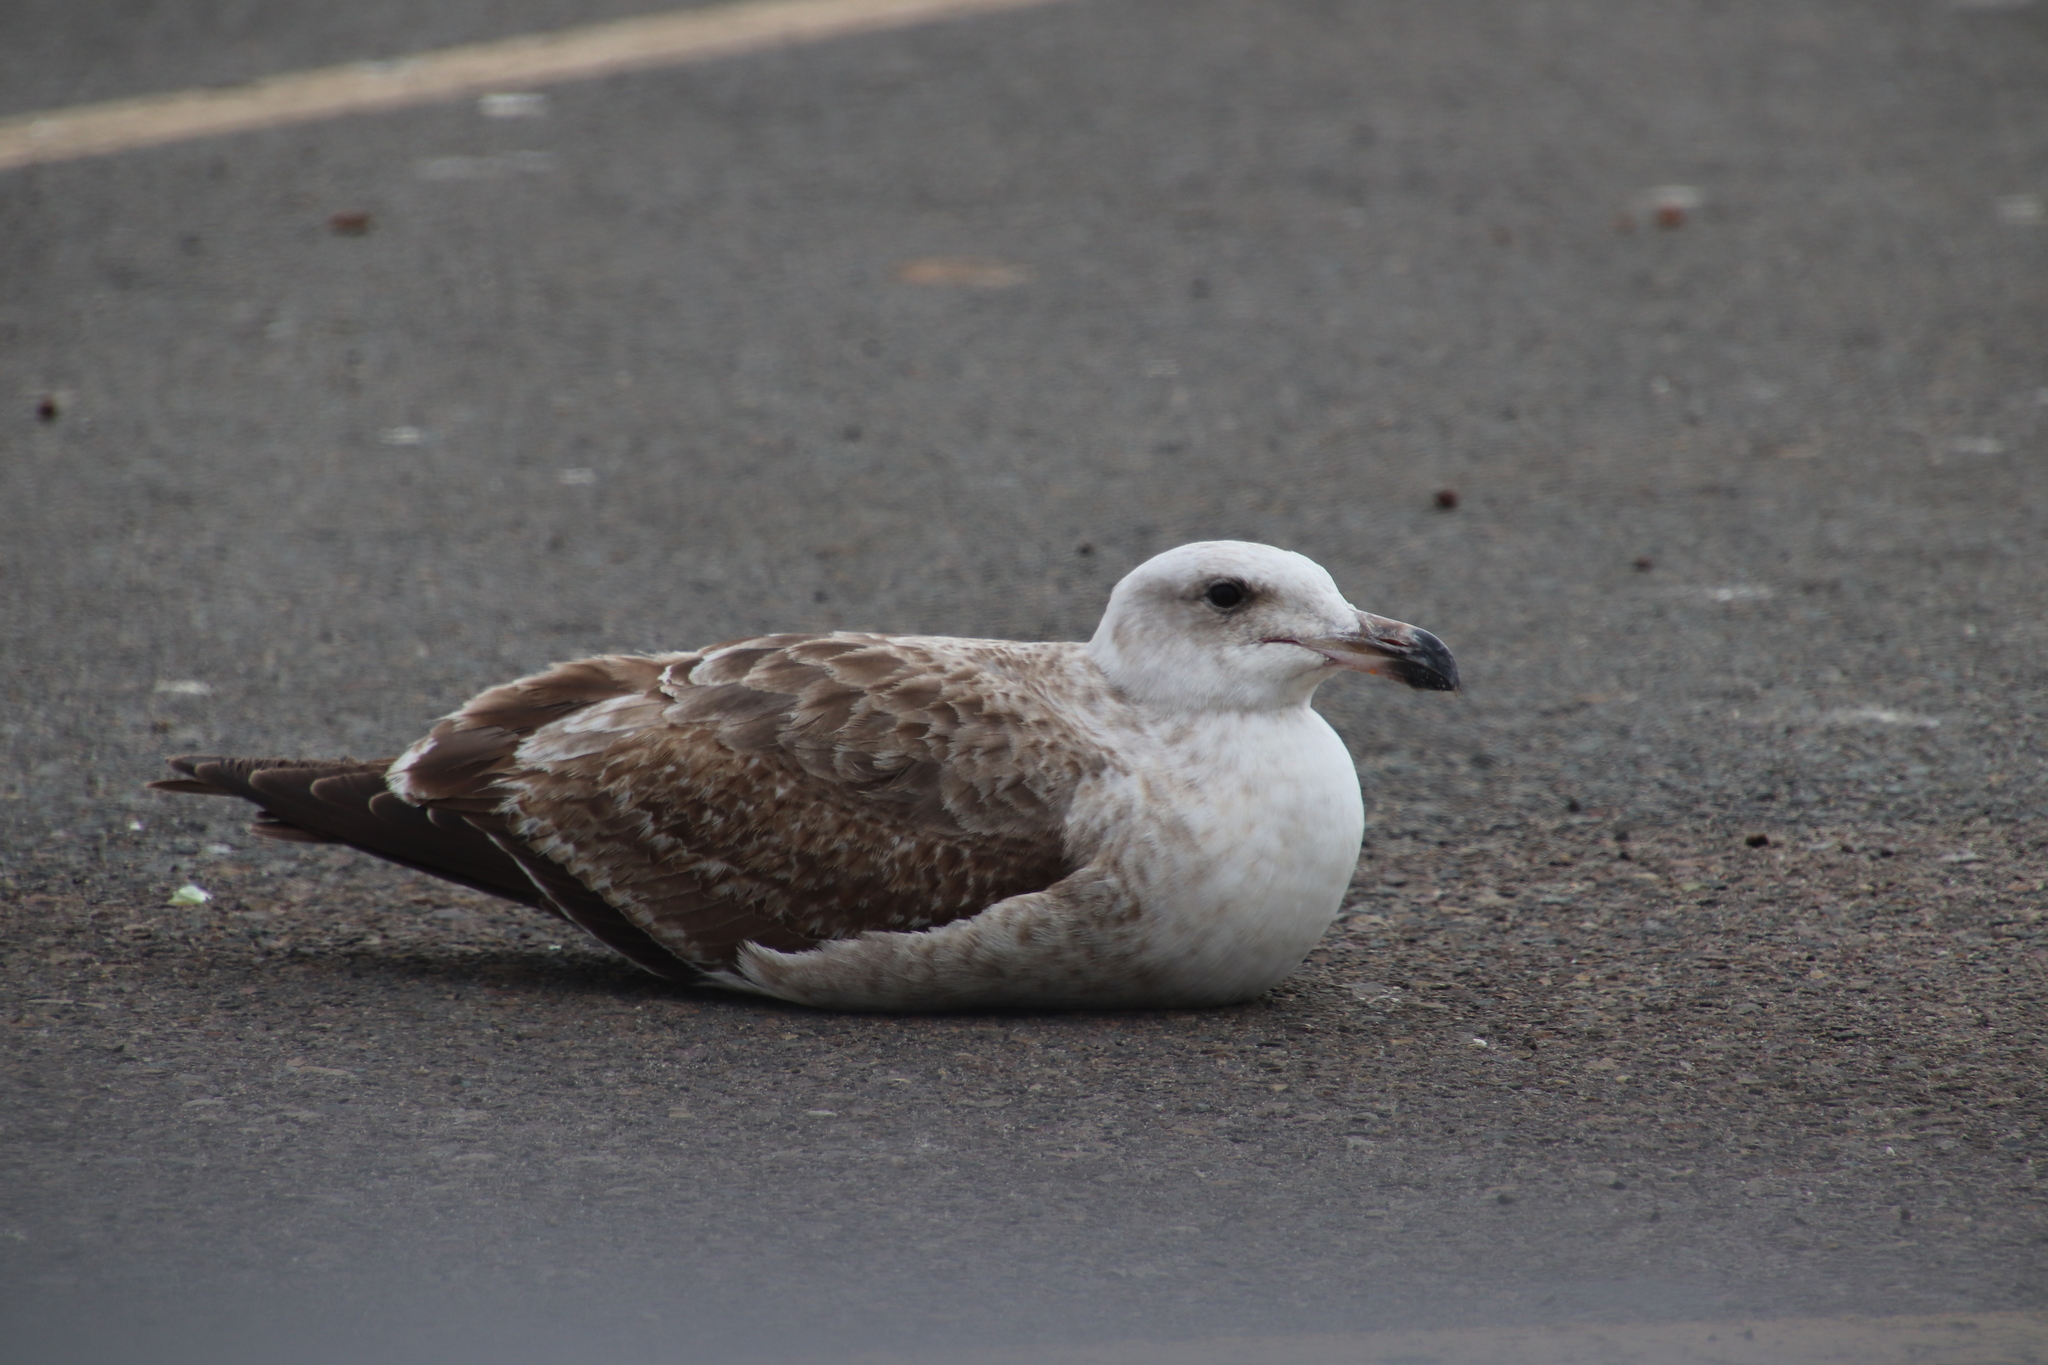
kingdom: Animalia
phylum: Chordata
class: Aves
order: Charadriiformes
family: Laridae
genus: Larus
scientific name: Larus occidentalis
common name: Western gull
